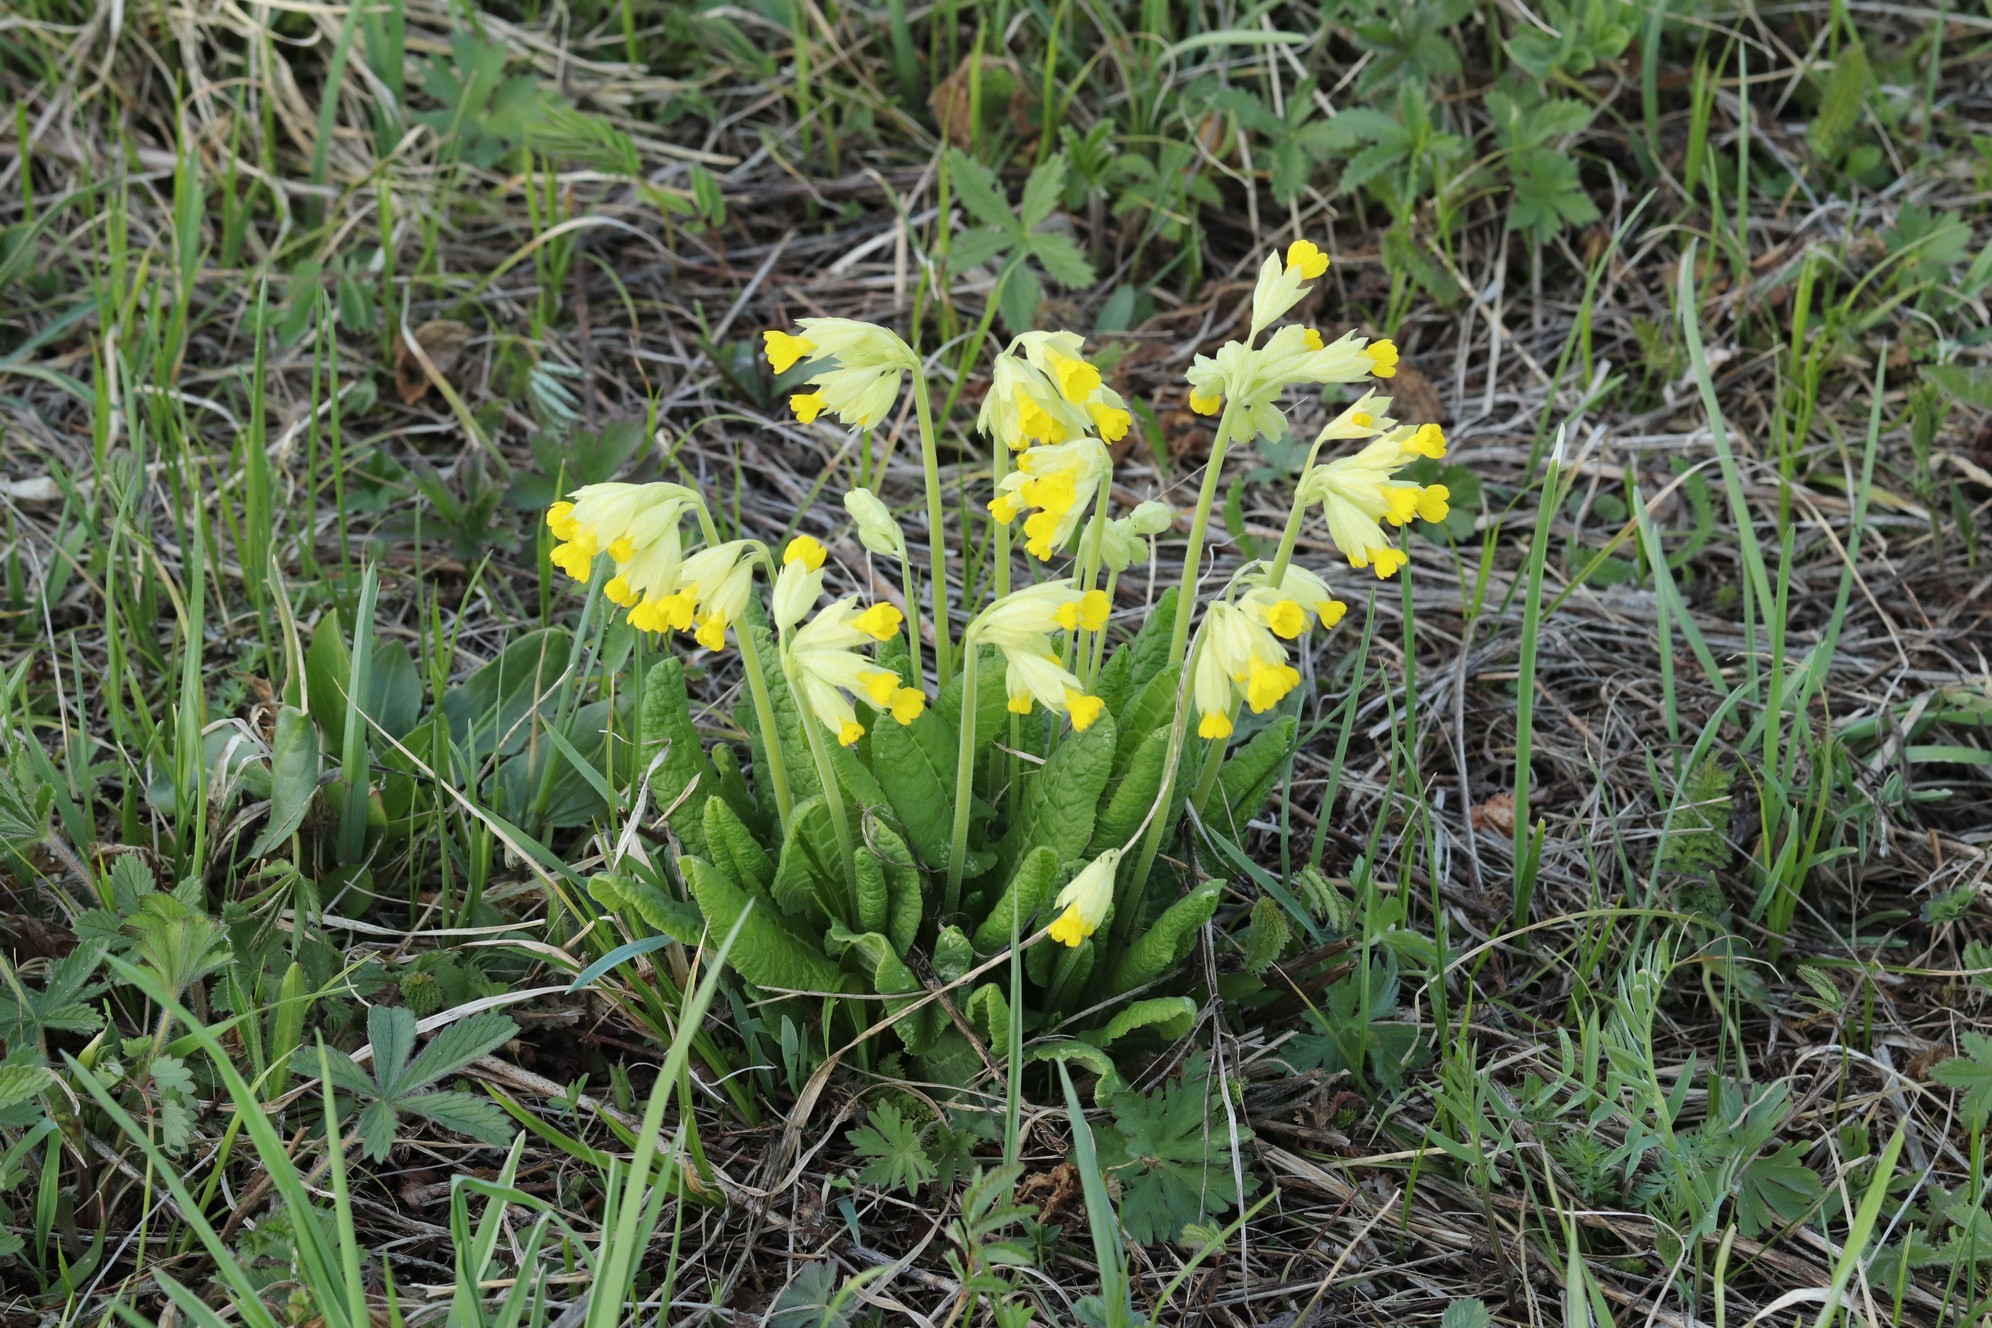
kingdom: Plantae
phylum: Tracheophyta
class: Magnoliopsida
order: Ericales
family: Primulaceae
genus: Primula
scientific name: Primula veris
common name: Cowslip
